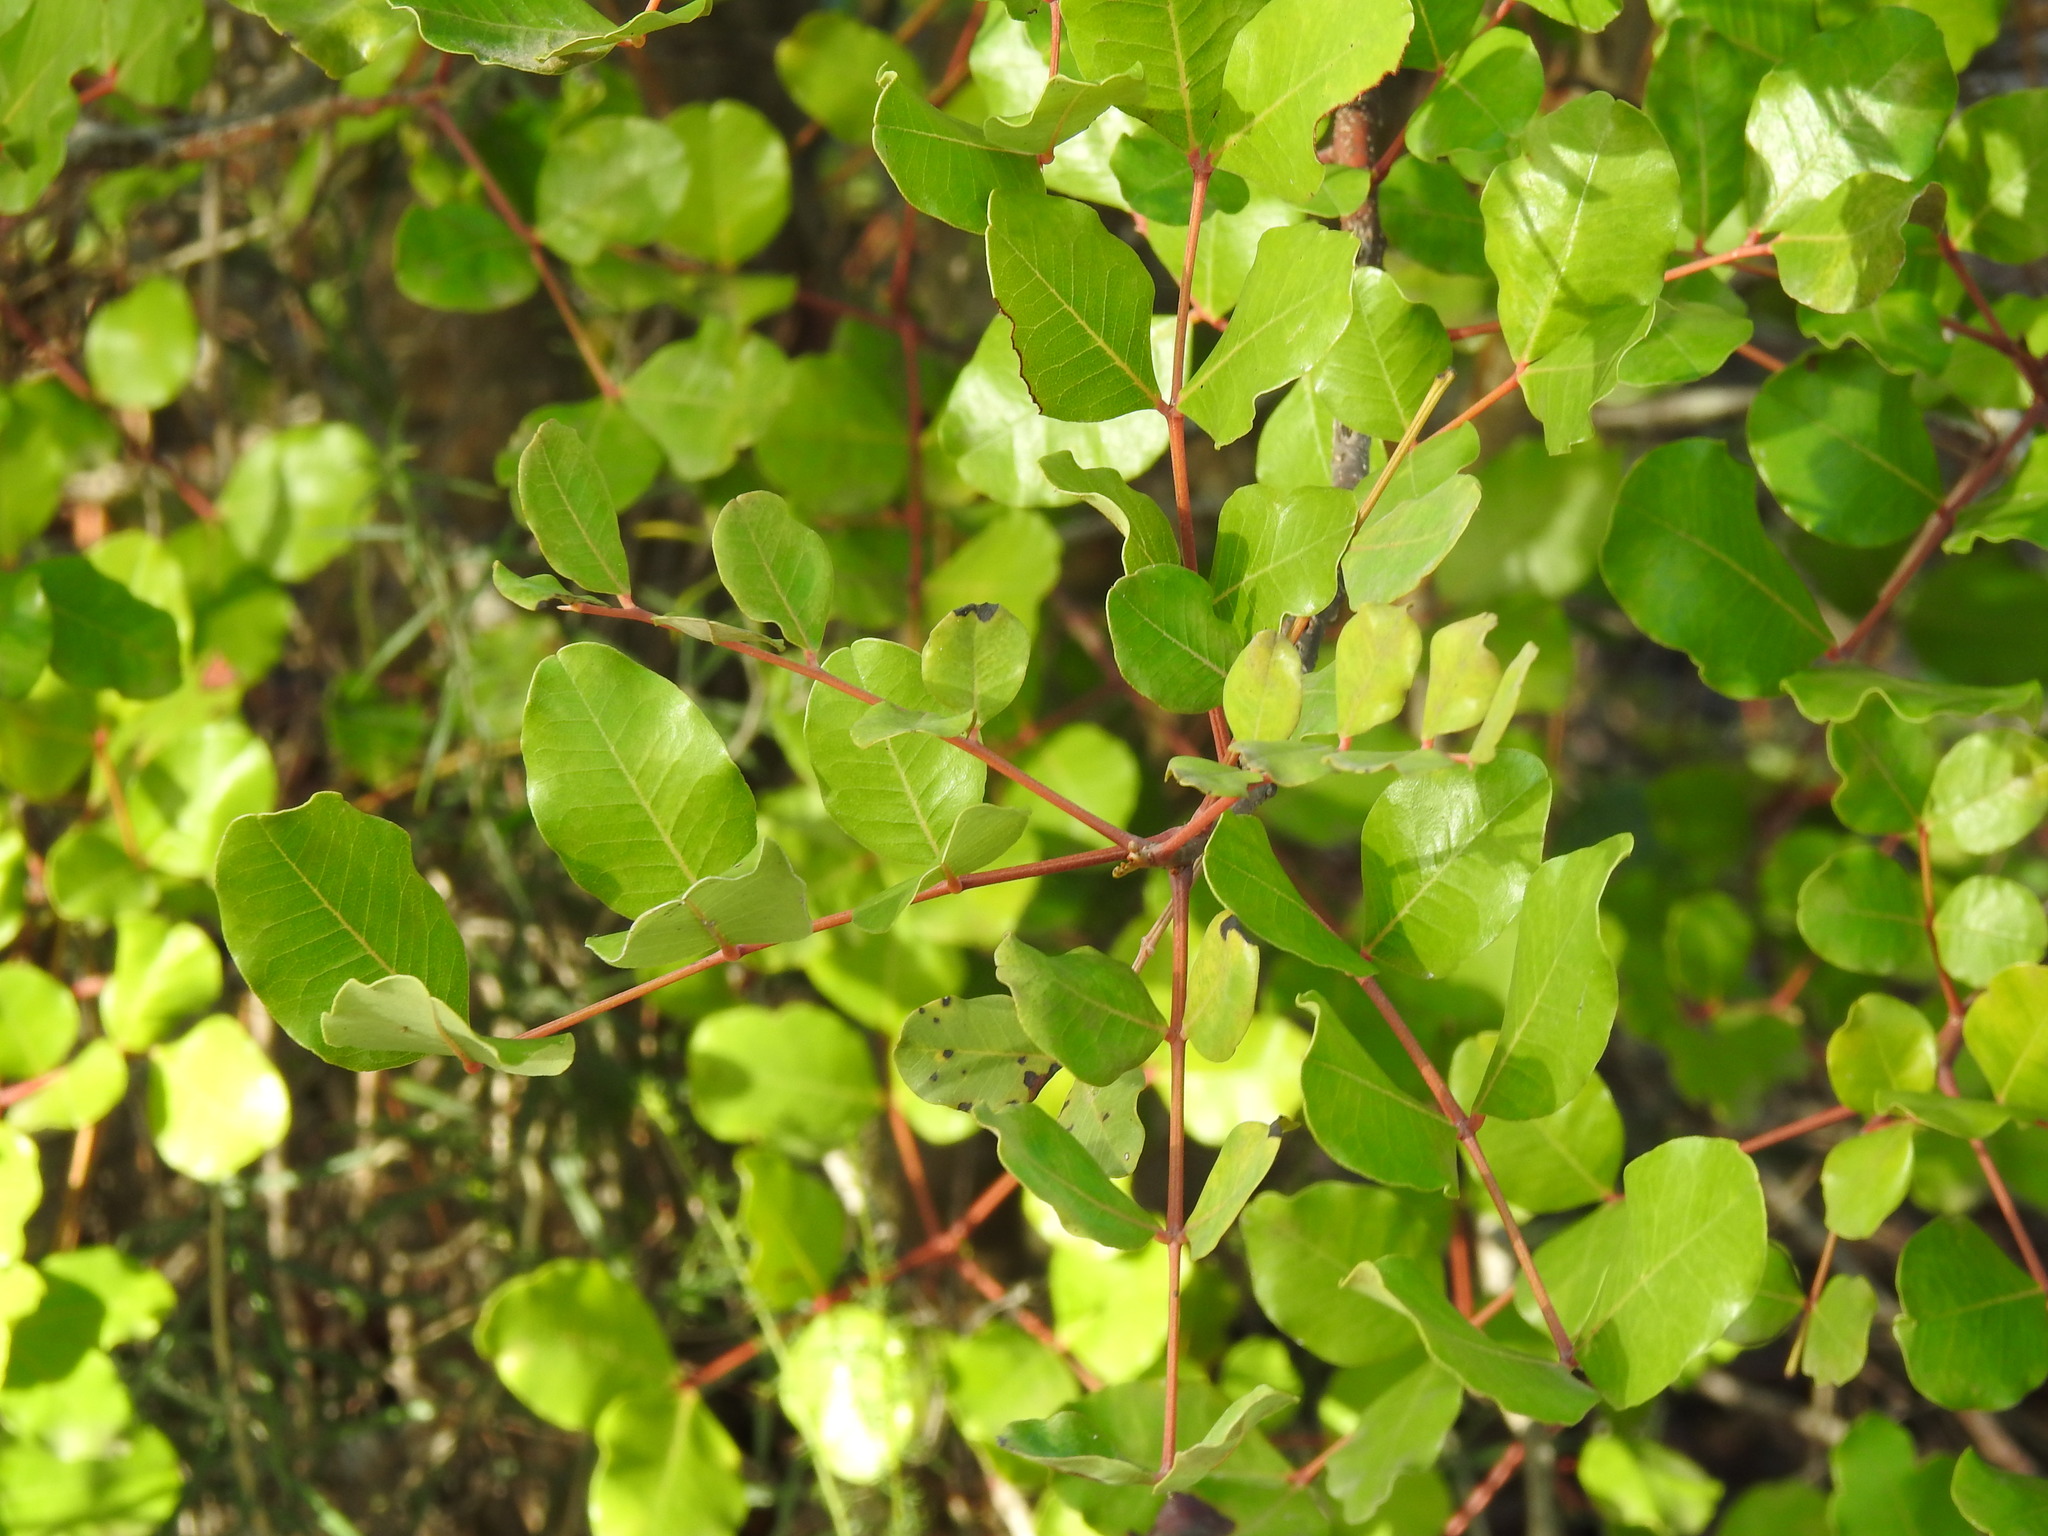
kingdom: Plantae
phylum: Tracheophyta
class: Magnoliopsida
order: Fabales
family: Fabaceae
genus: Ceratonia
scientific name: Ceratonia siliqua
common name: Carob
